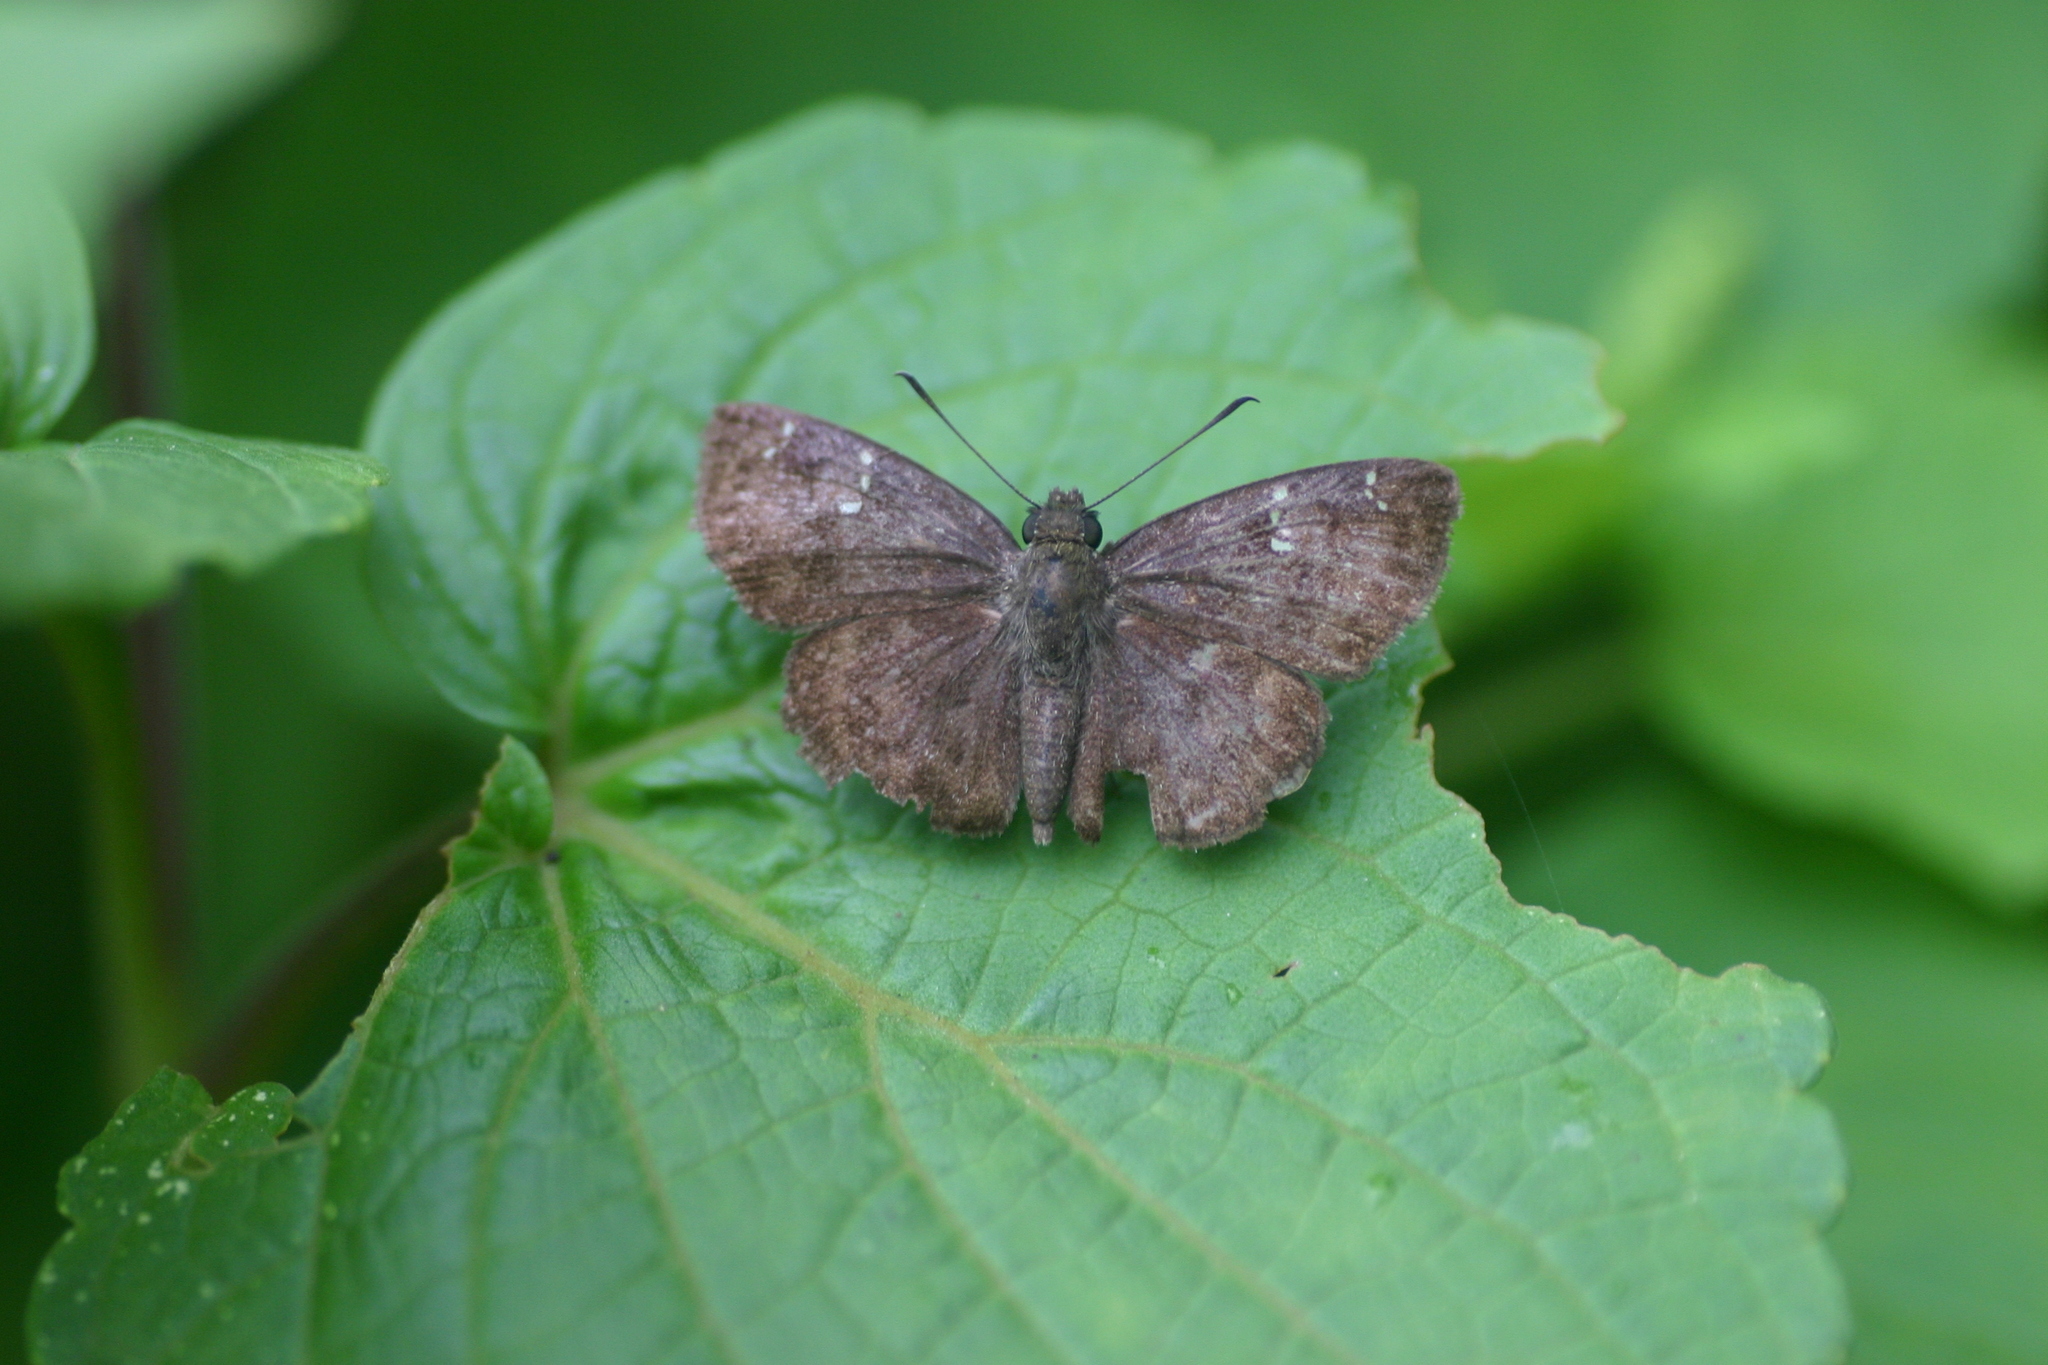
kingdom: Animalia
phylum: Arthropoda
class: Insecta
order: Lepidoptera
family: Hesperiidae
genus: Sarangesa
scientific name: Sarangesa dasahara
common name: Common small flat
